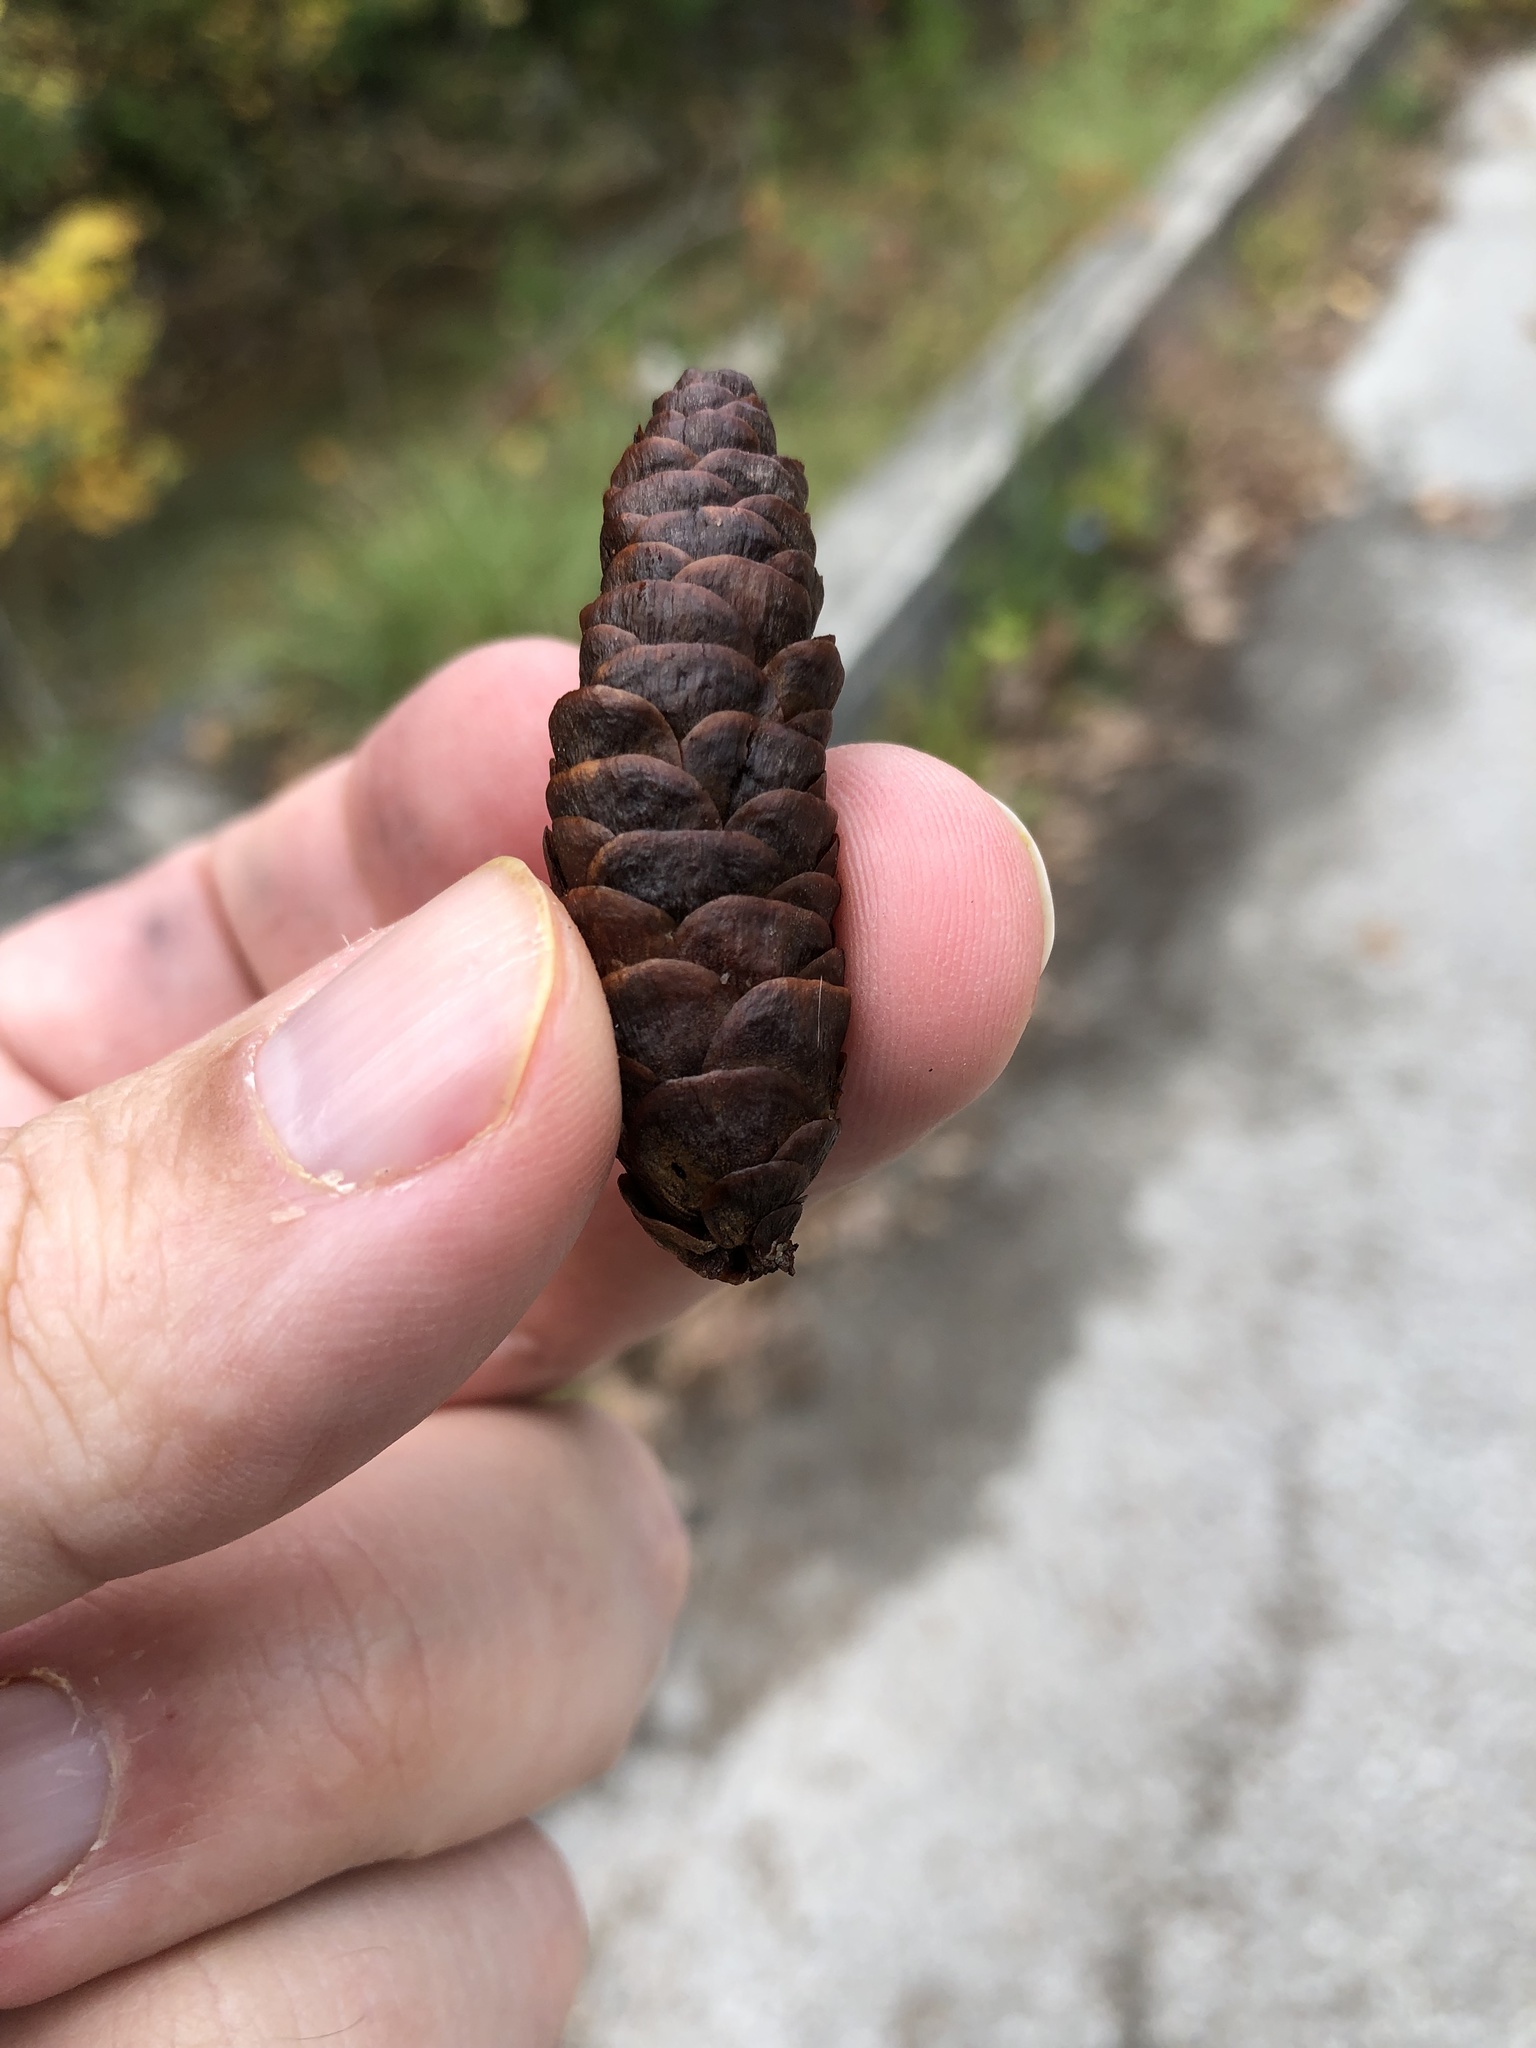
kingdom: Plantae
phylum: Tracheophyta
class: Pinopsida
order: Pinales
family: Pinaceae
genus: Picea
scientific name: Picea glauca
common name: White spruce
